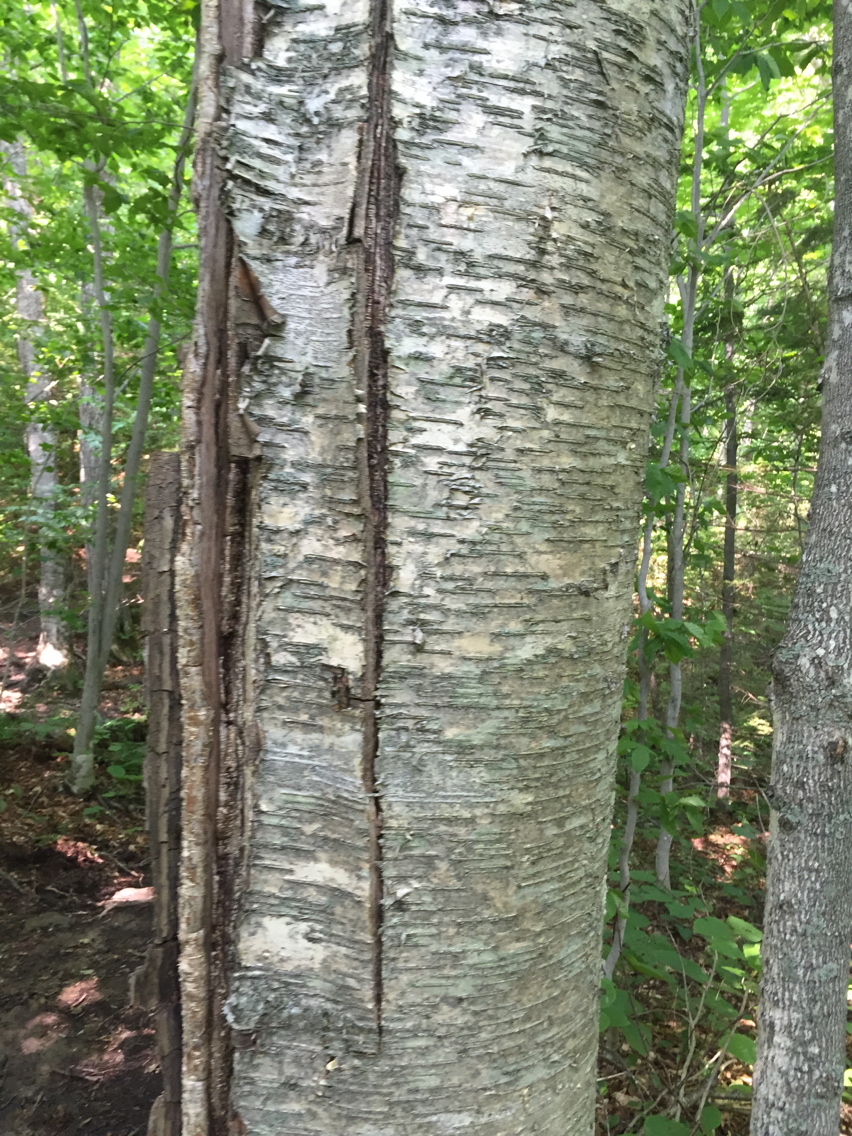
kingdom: Plantae
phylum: Tracheophyta
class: Magnoliopsida
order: Fagales
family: Betulaceae
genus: Betula
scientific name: Betula alleghaniensis
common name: Yellow birch
